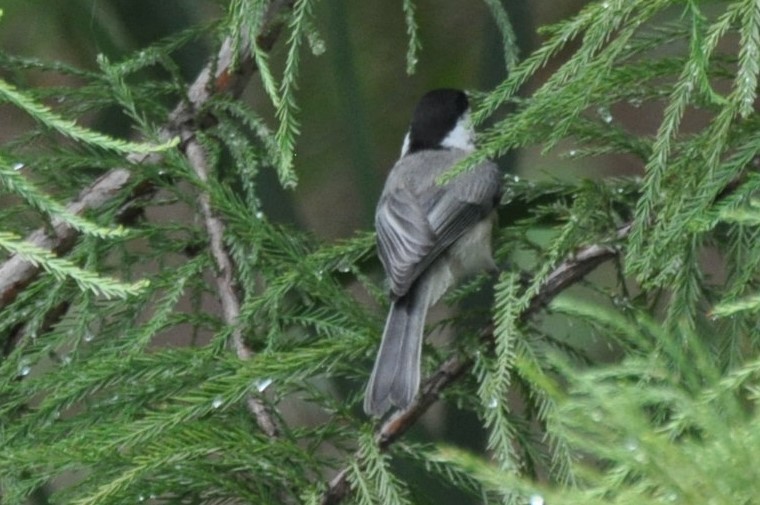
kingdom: Animalia
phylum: Chordata
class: Aves
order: Passeriformes
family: Paridae
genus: Poecile
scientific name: Poecile carolinensis
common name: Carolina chickadee
